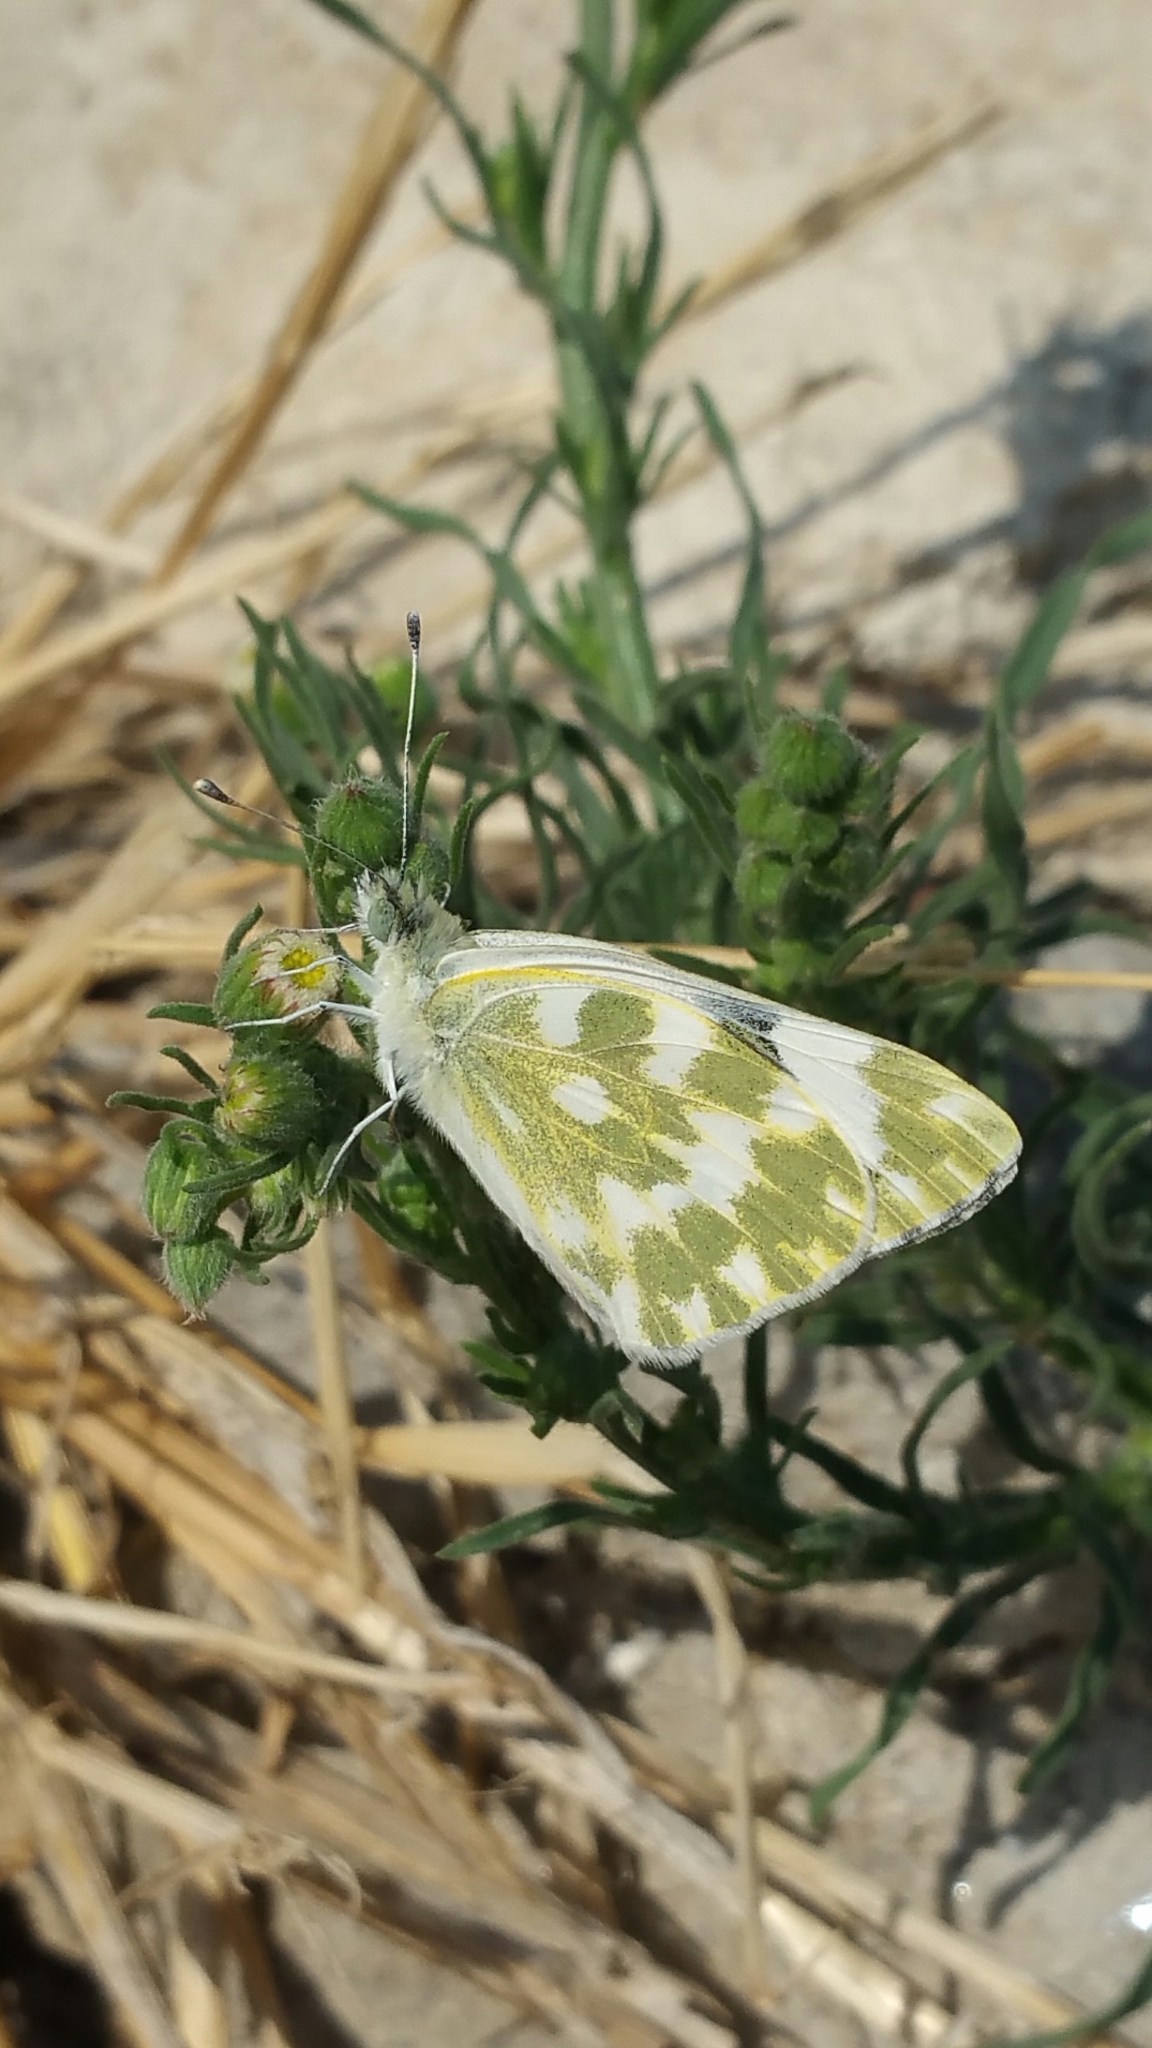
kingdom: Animalia
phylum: Arthropoda
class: Insecta
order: Lepidoptera
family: Pieridae
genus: Pontia
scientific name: Pontia daplidice
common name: Bath white
